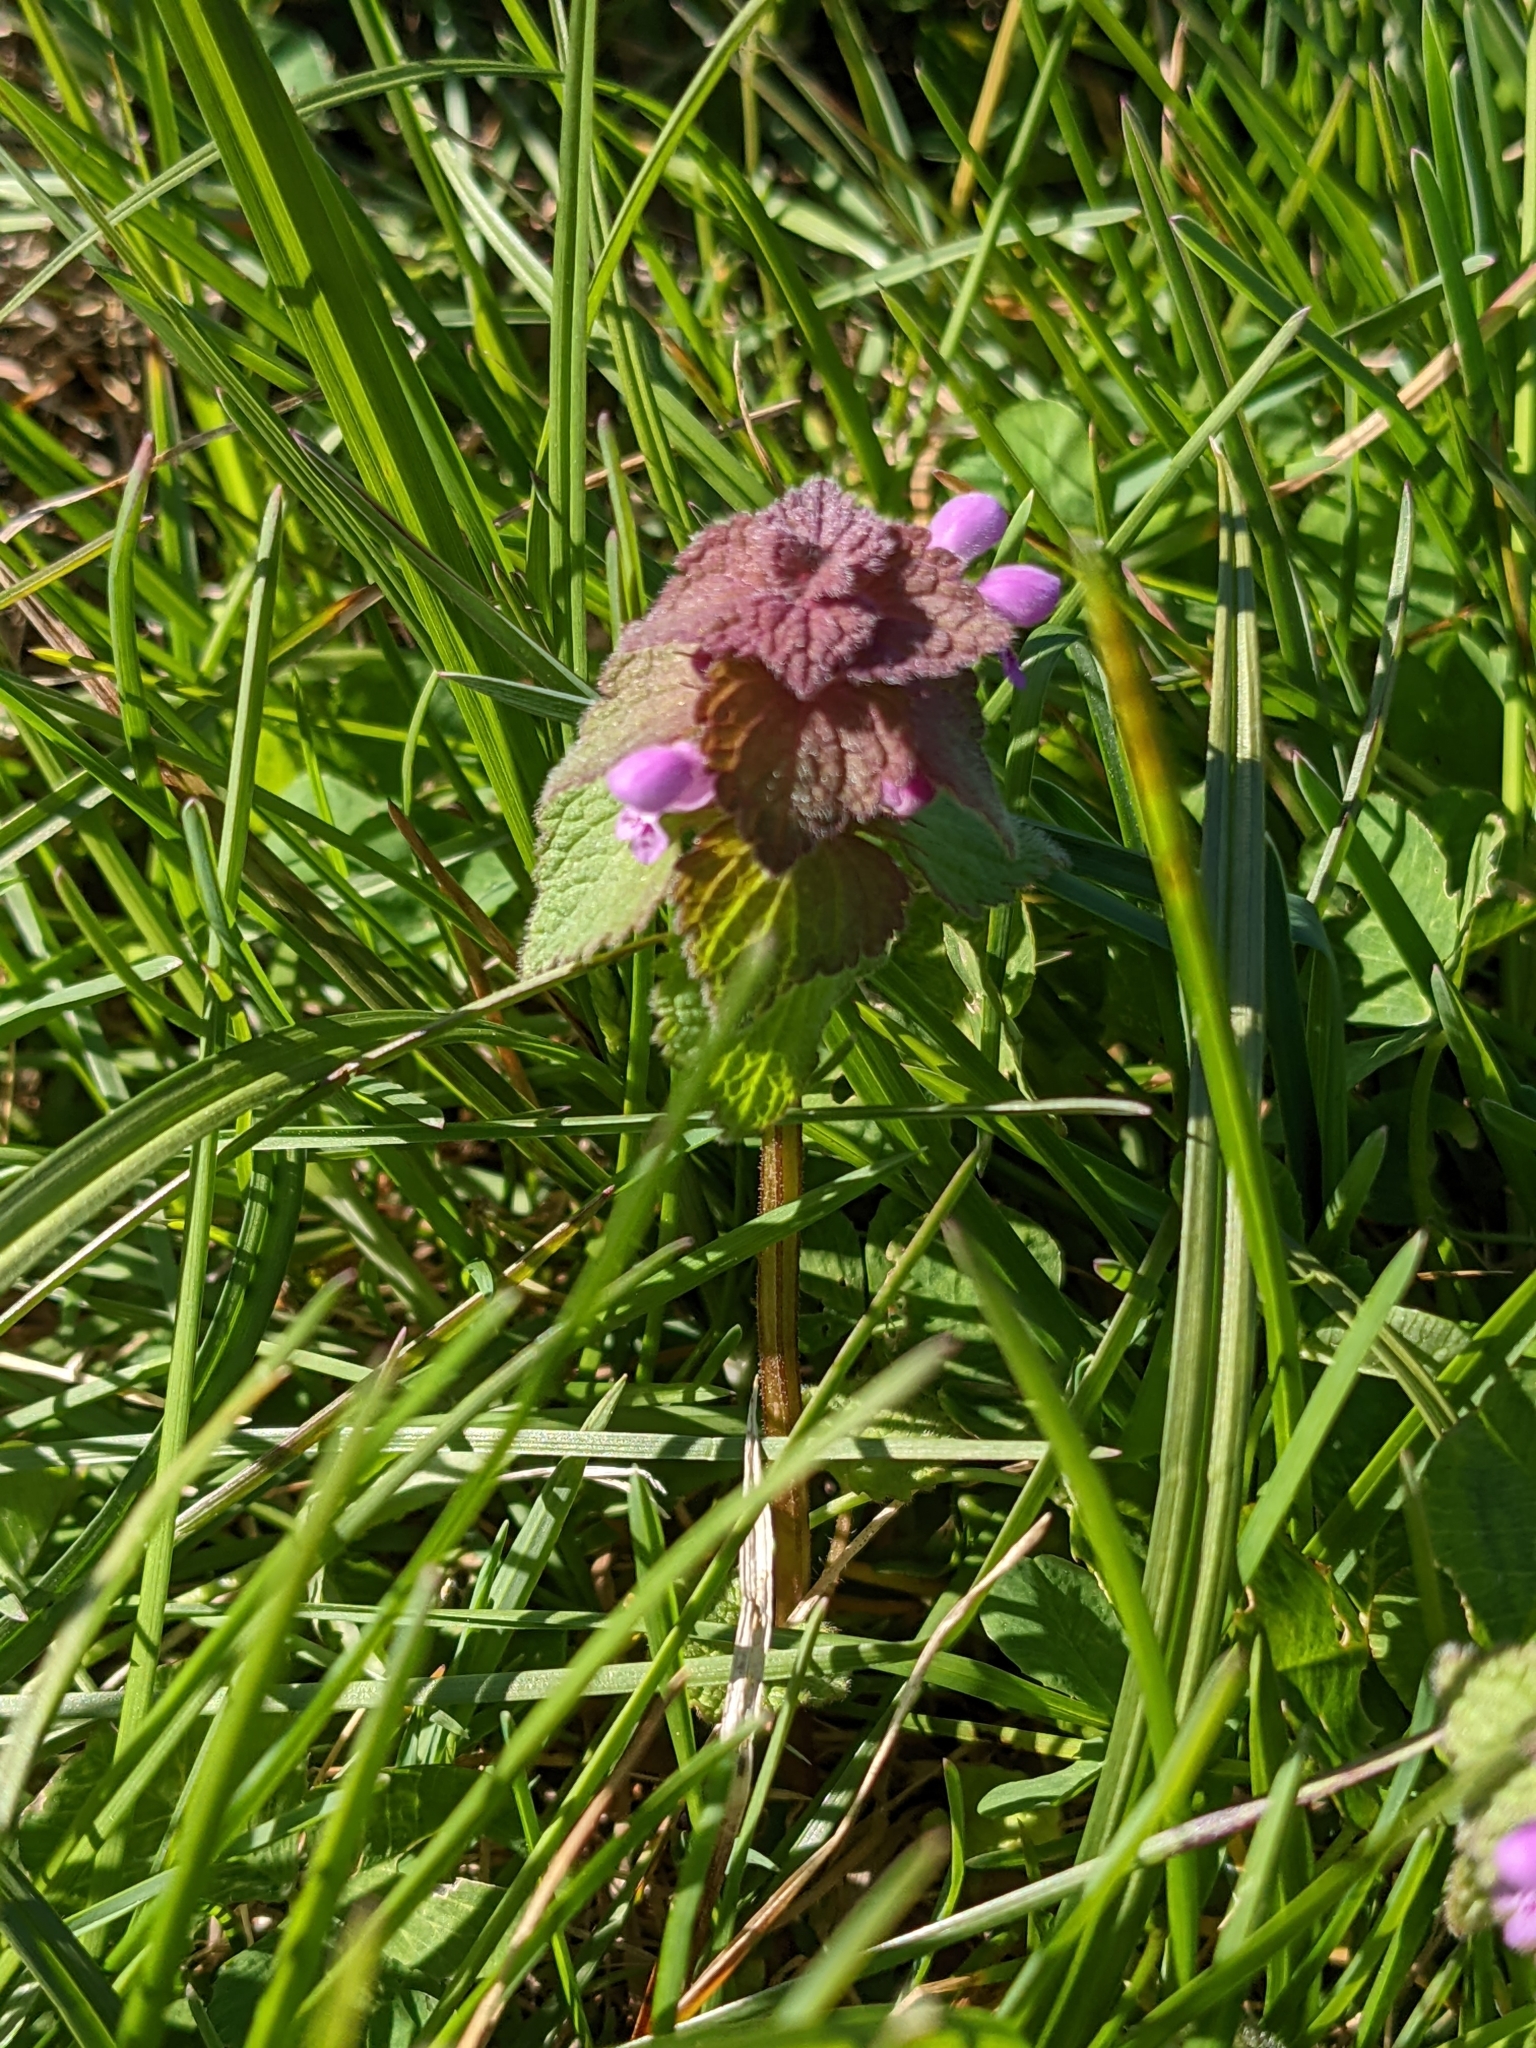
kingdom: Plantae
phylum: Tracheophyta
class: Magnoliopsida
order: Lamiales
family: Lamiaceae
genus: Lamium
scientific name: Lamium purpureum
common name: Red dead-nettle
